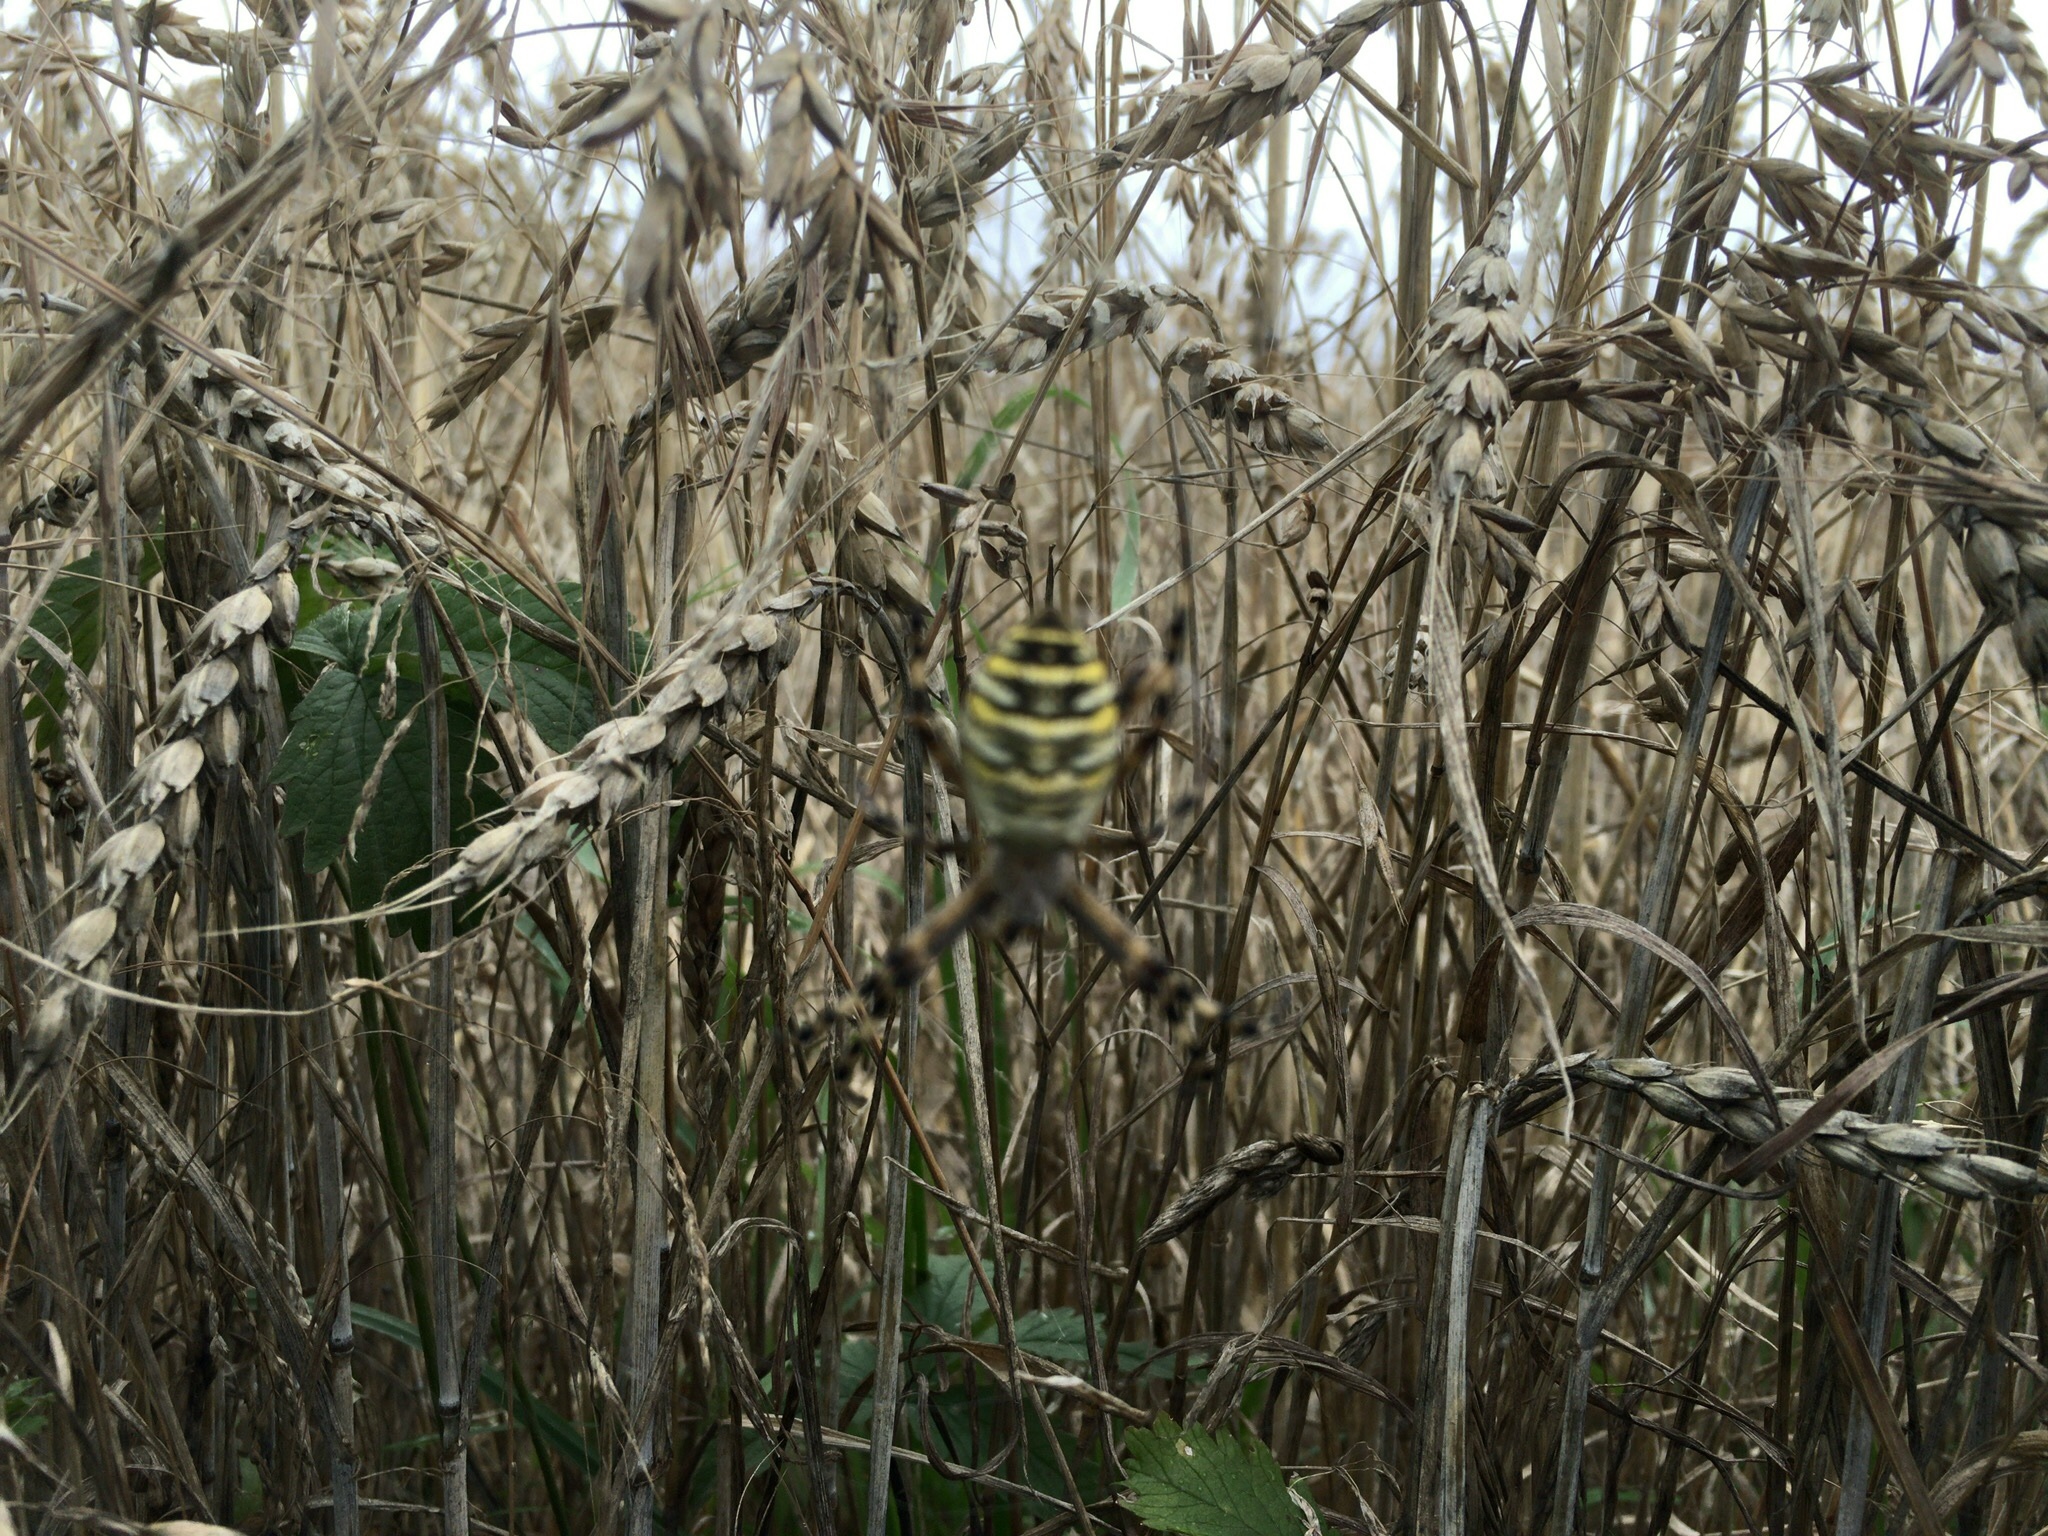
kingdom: Animalia
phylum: Arthropoda
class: Arachnida
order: Araneae
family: Araneidae
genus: Argiope
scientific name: Argiope bruennichi
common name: Wasp spider
